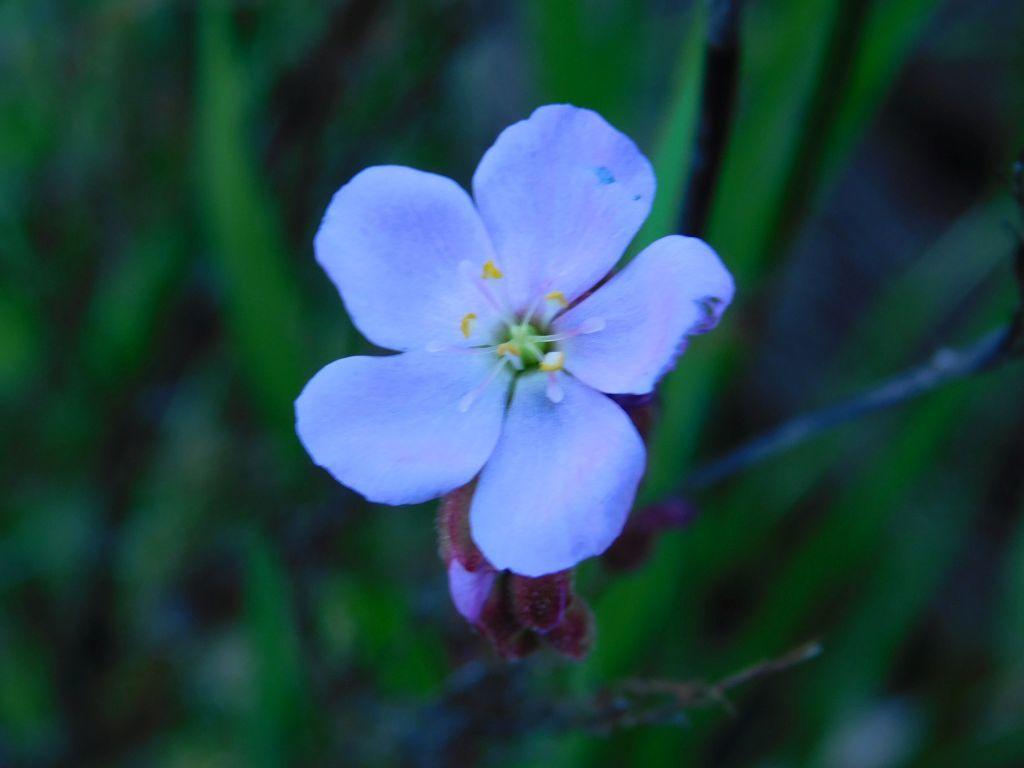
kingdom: Plantae
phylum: Tracheophyta
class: Magnoliopsida
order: Caryophyllales
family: Droseraceae
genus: Drosera
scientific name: Drosera capensis
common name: Cape sundew
